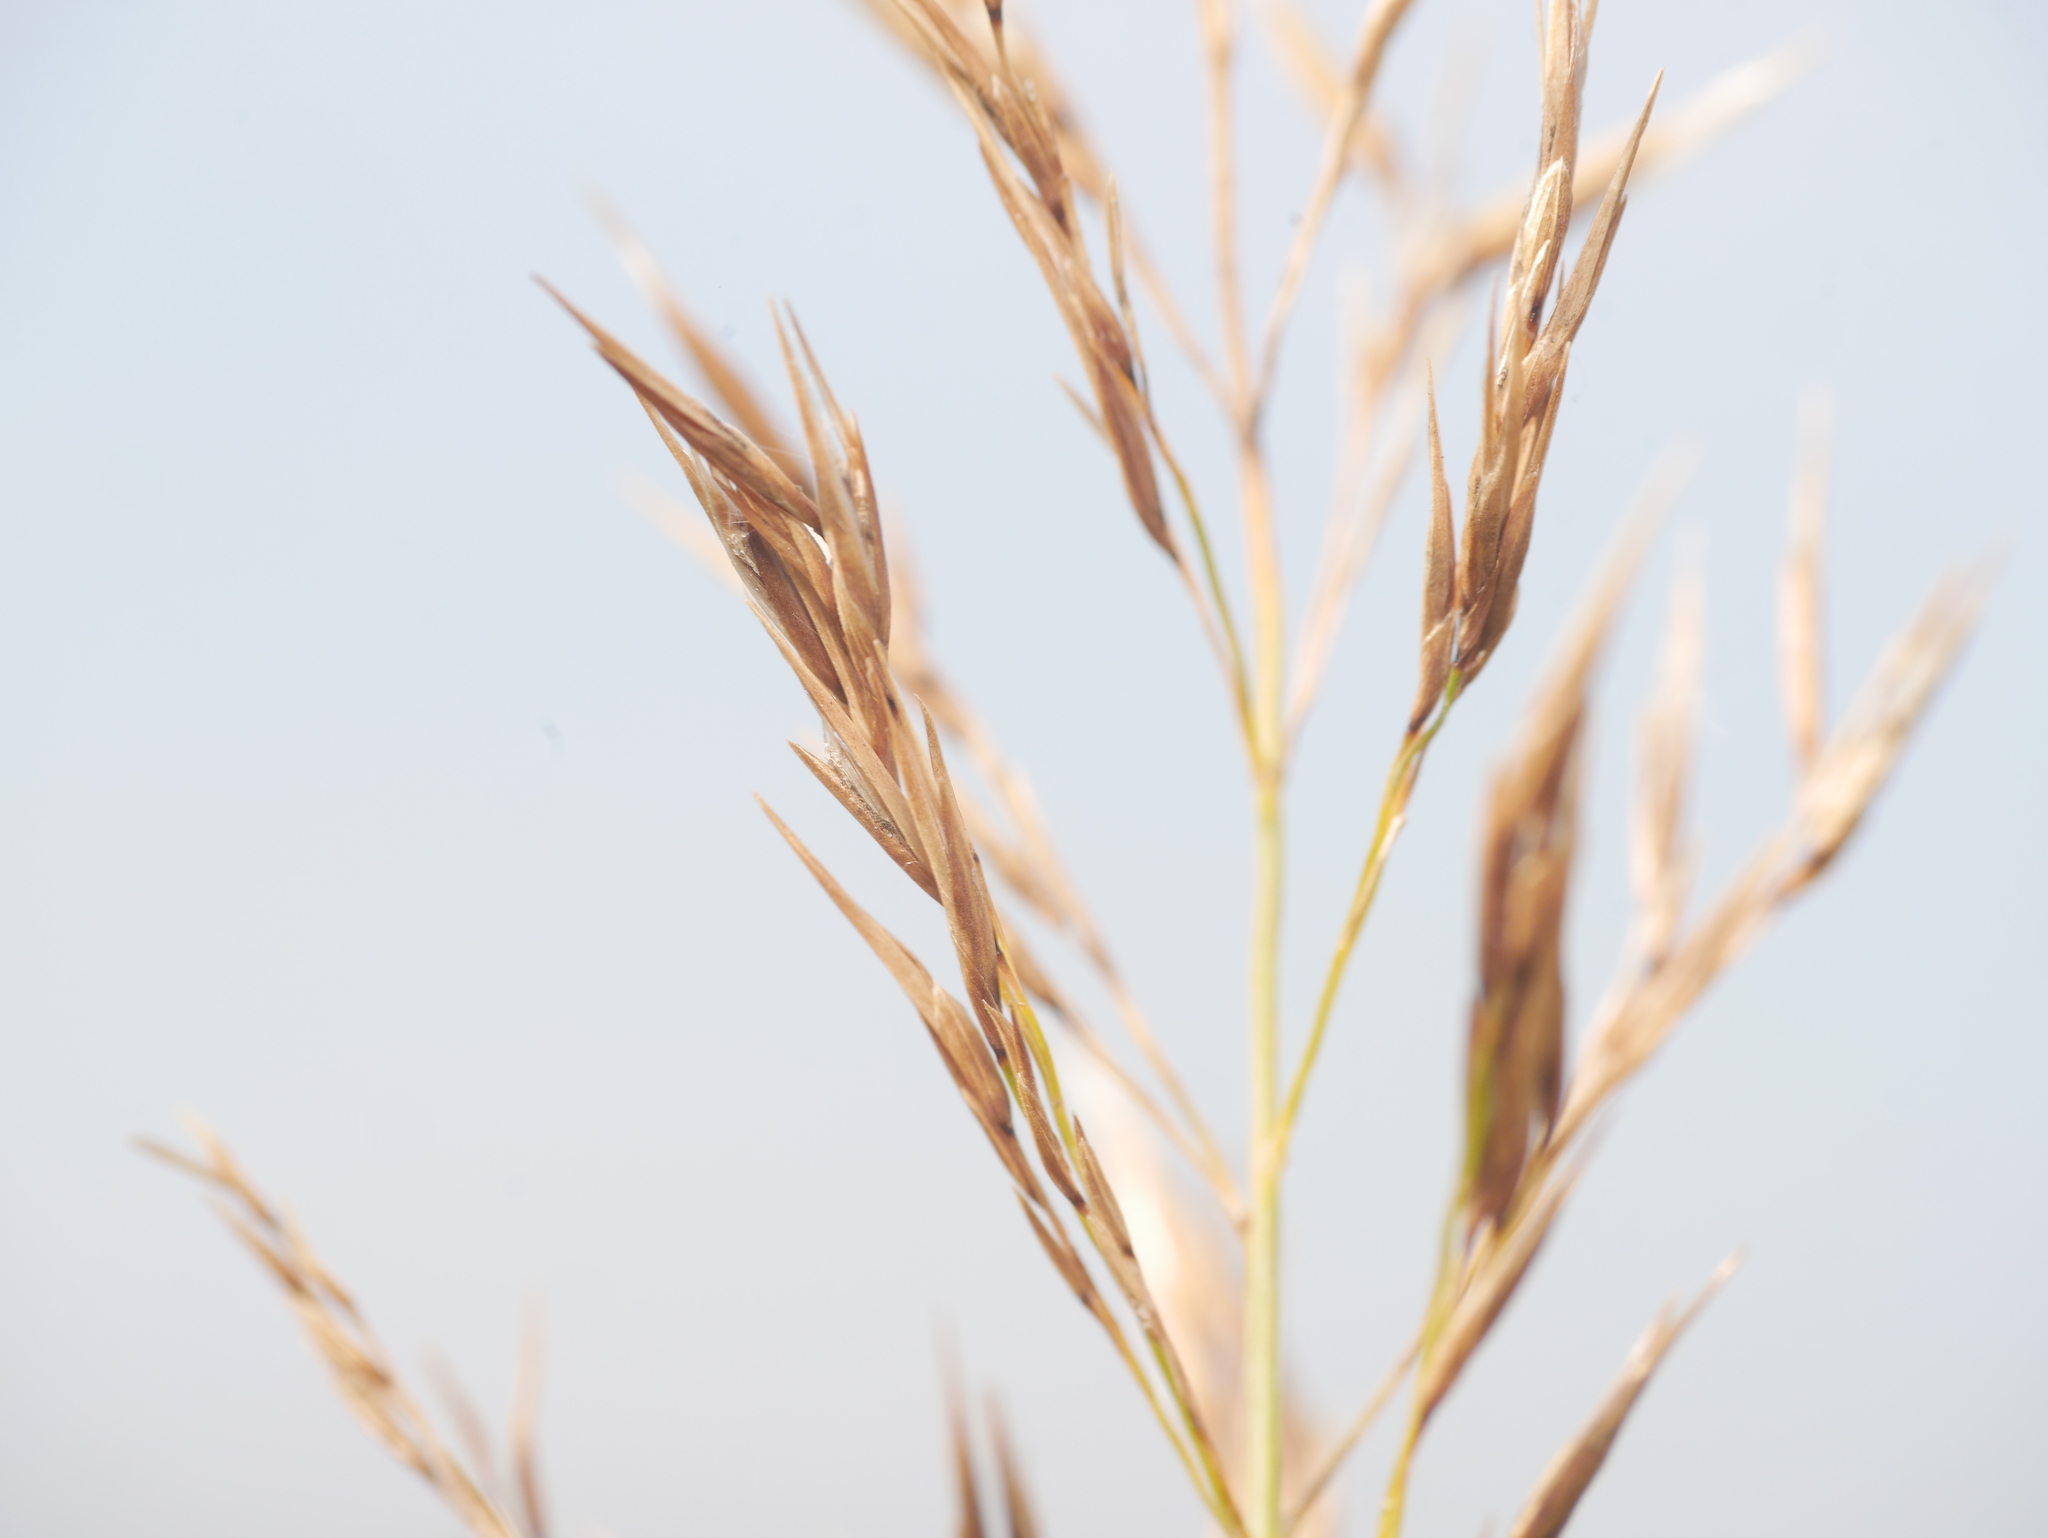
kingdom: Plantae
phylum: Tracheophyta
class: Liliopsida
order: Poales
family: Poaceae
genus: Phragmites
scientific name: Phragmites australis
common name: Common reed
